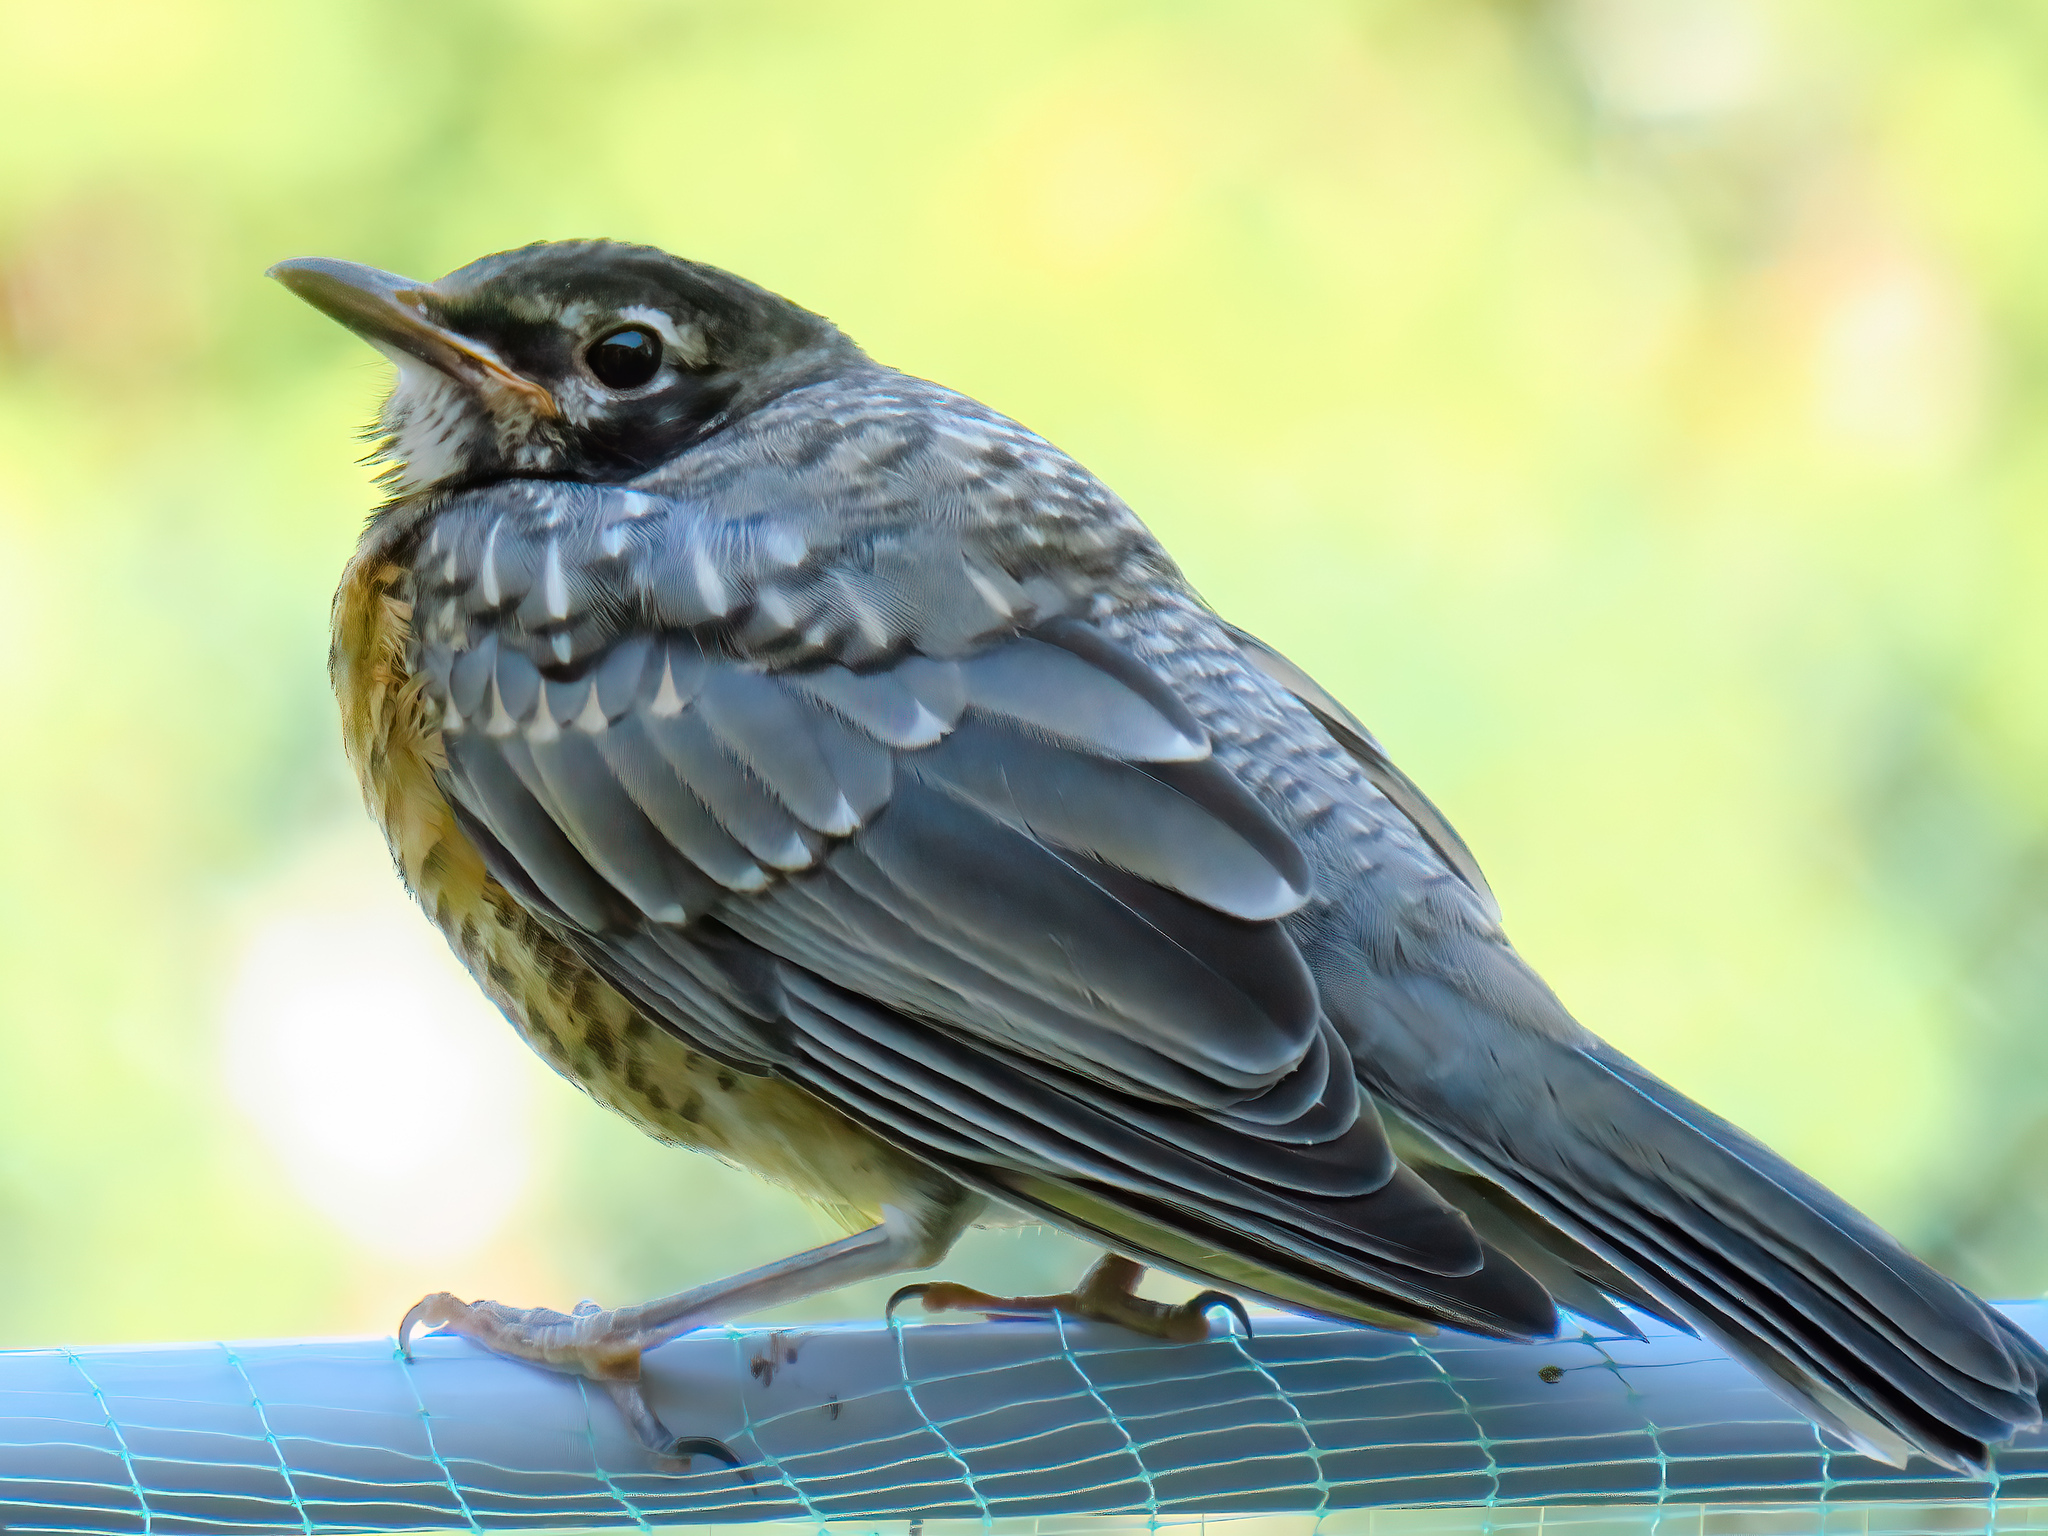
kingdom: Animalia
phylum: Chordata
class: Aves
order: Passeriformes
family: Turdidae
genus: Turdus
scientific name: Turdus migratorius
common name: American robin
